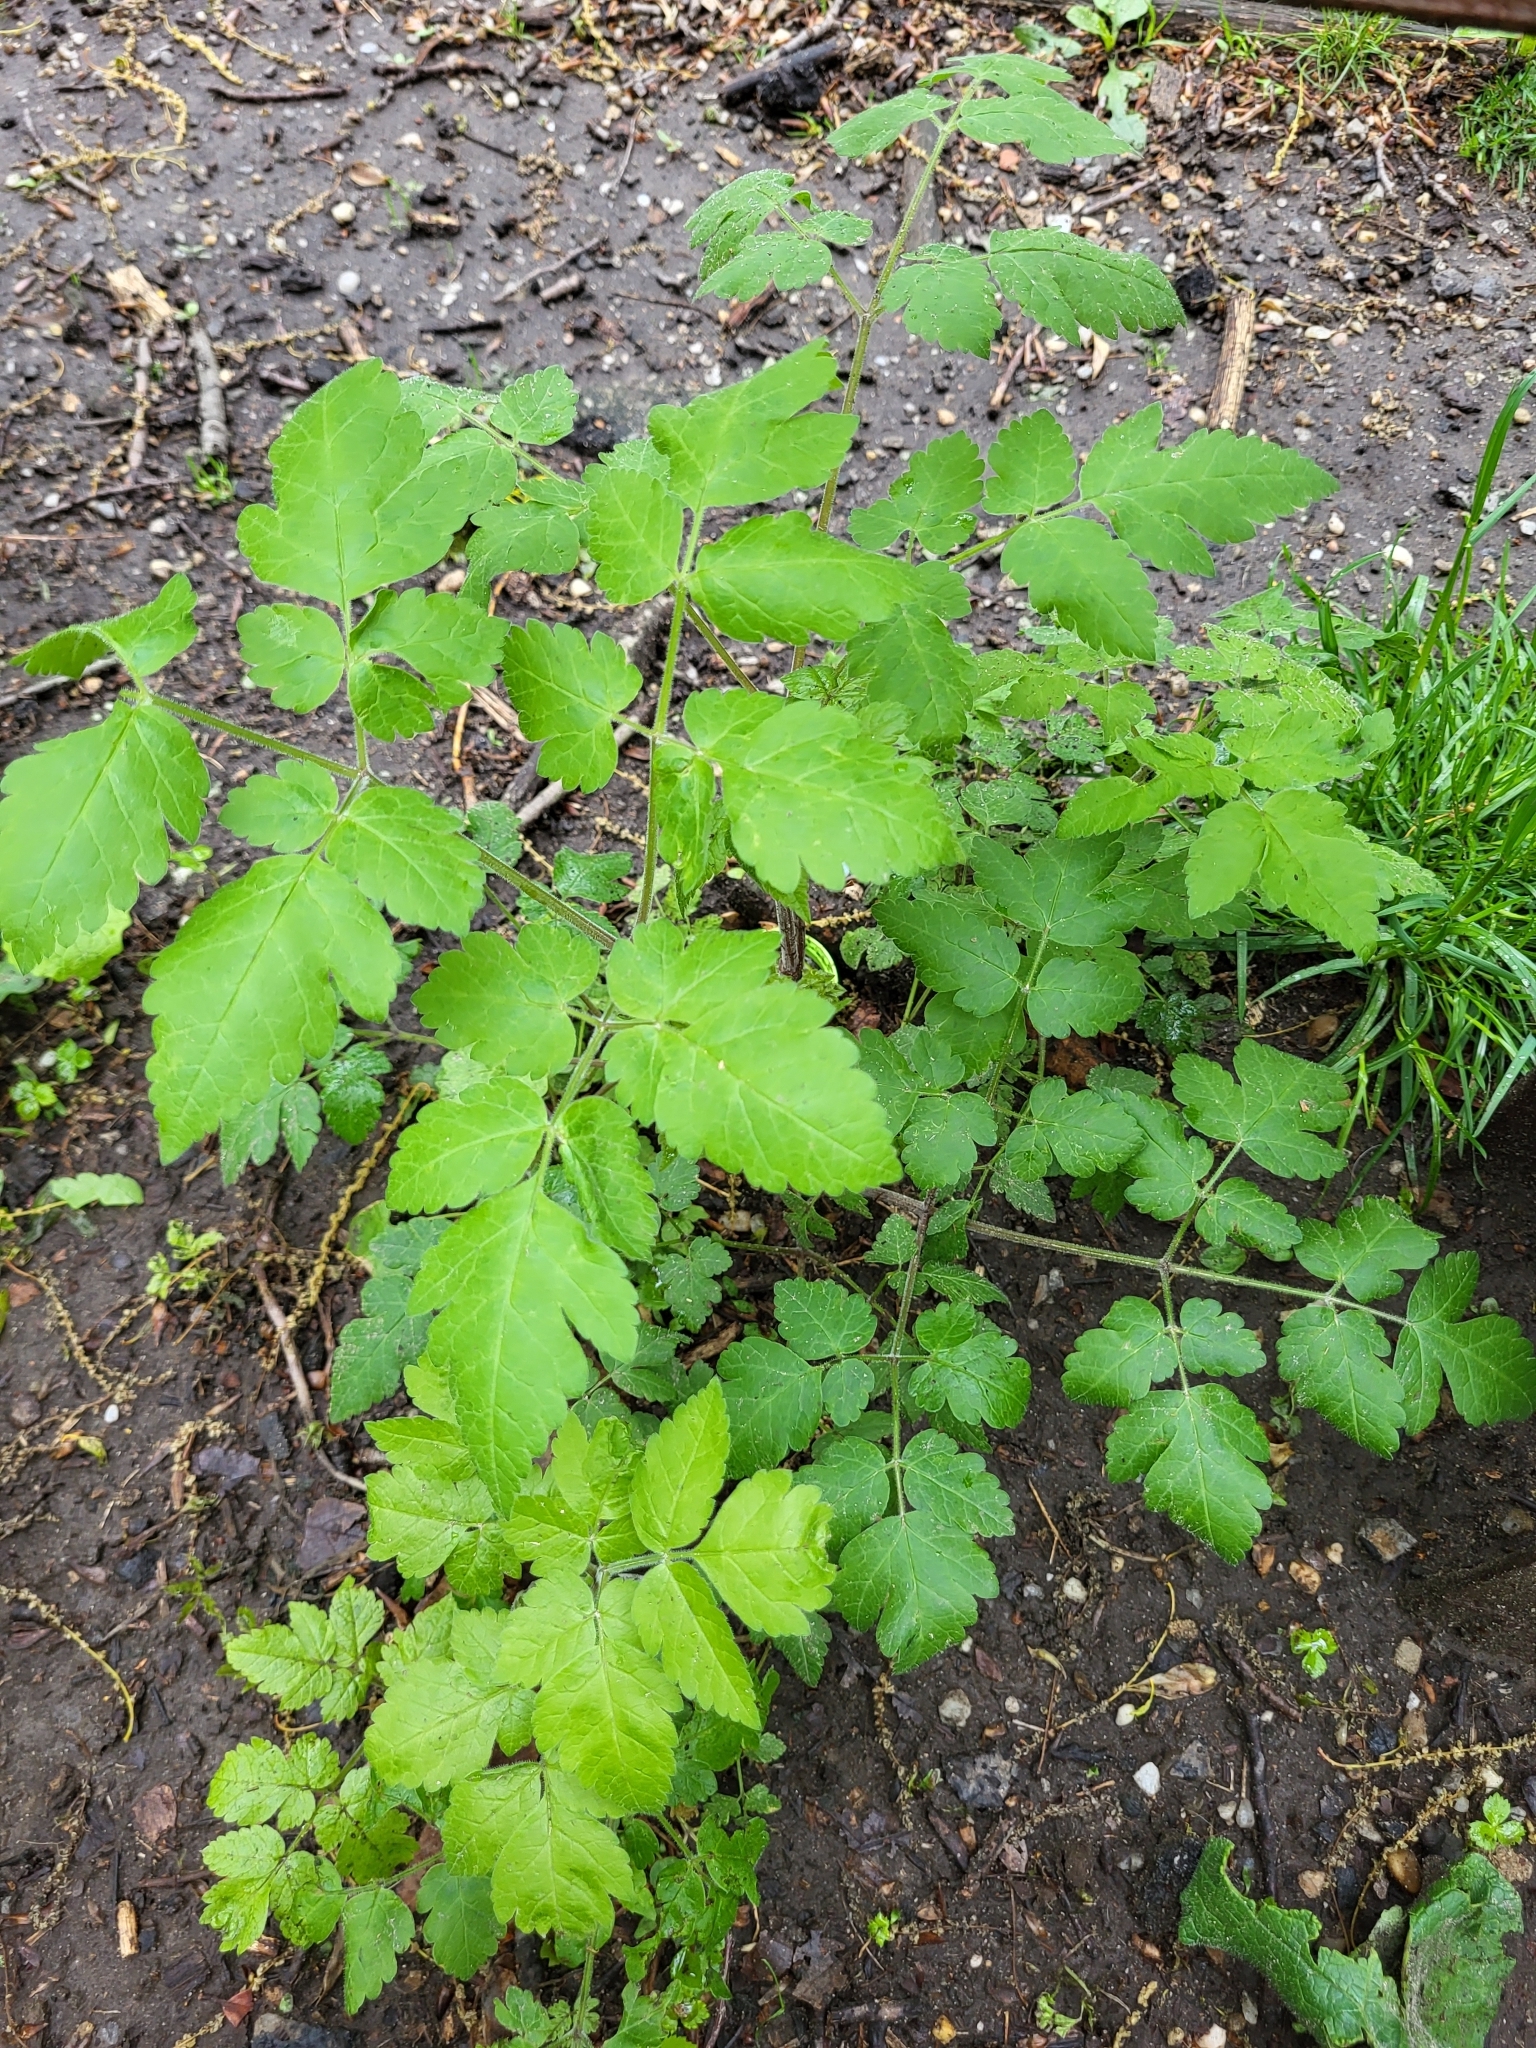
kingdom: Plantae
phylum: Tracheophyta
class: Magnoliopsida
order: Apiales
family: Apiaceae
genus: Osmorhiza
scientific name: Osmorhiza longistylis
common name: Smooth sweet cicely
